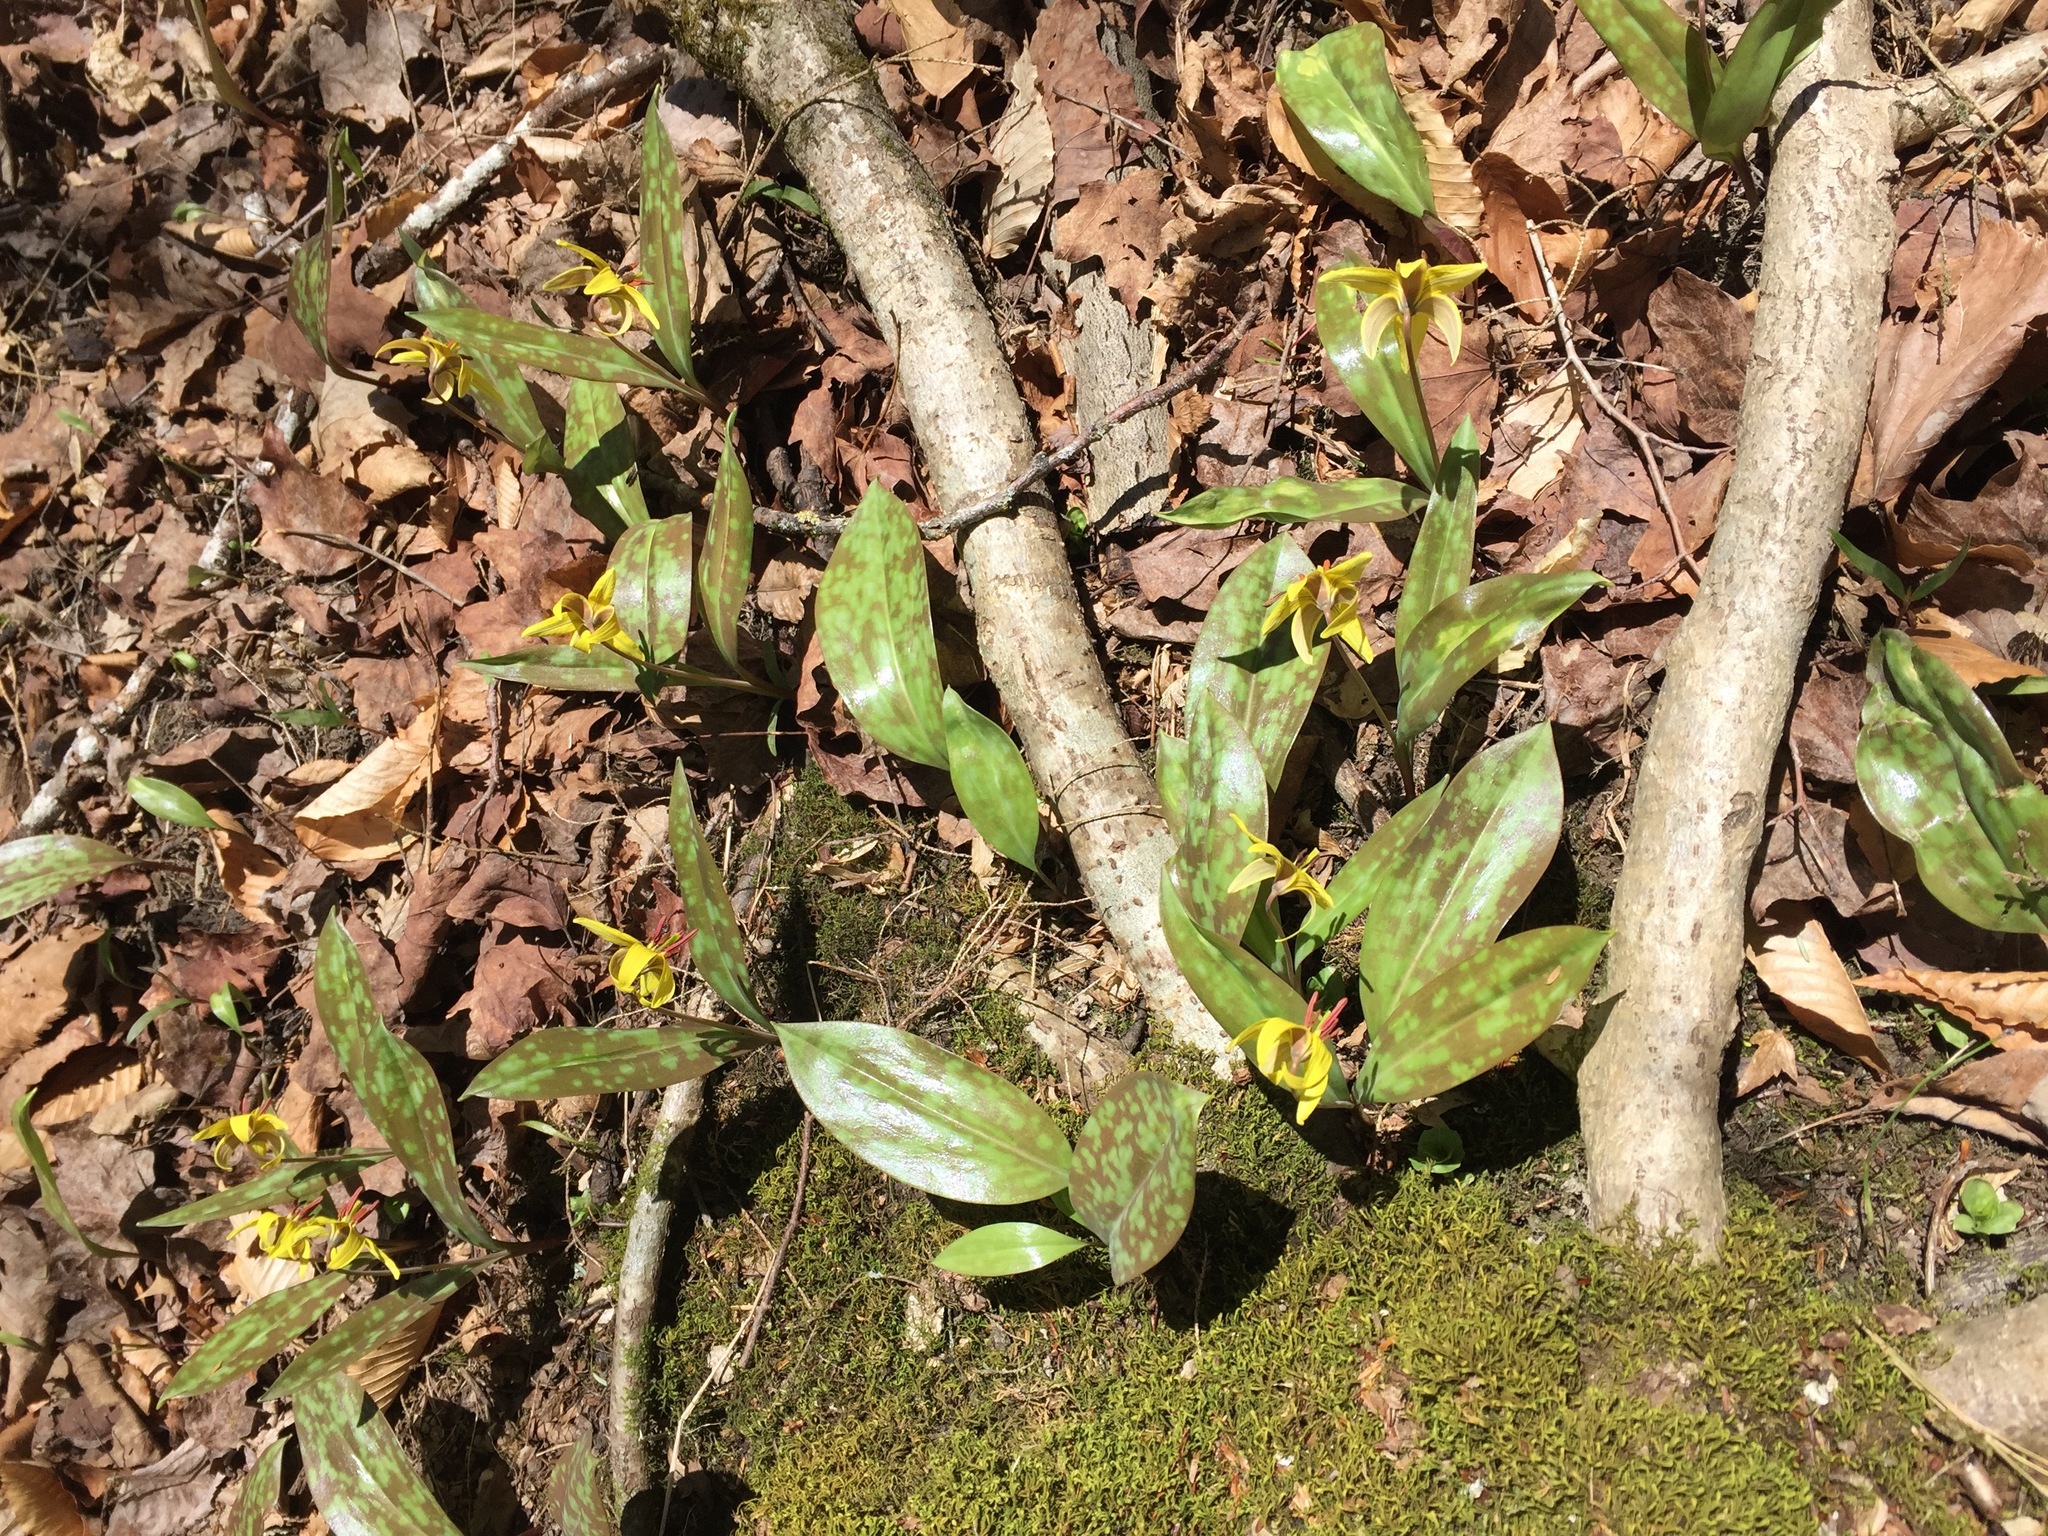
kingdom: Plantae
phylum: Tracheophyta
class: Liliopsida
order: Liliales
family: Liliaceae
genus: Erythronium
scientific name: Erythronium americanum
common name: Yellow adder's-tongue
